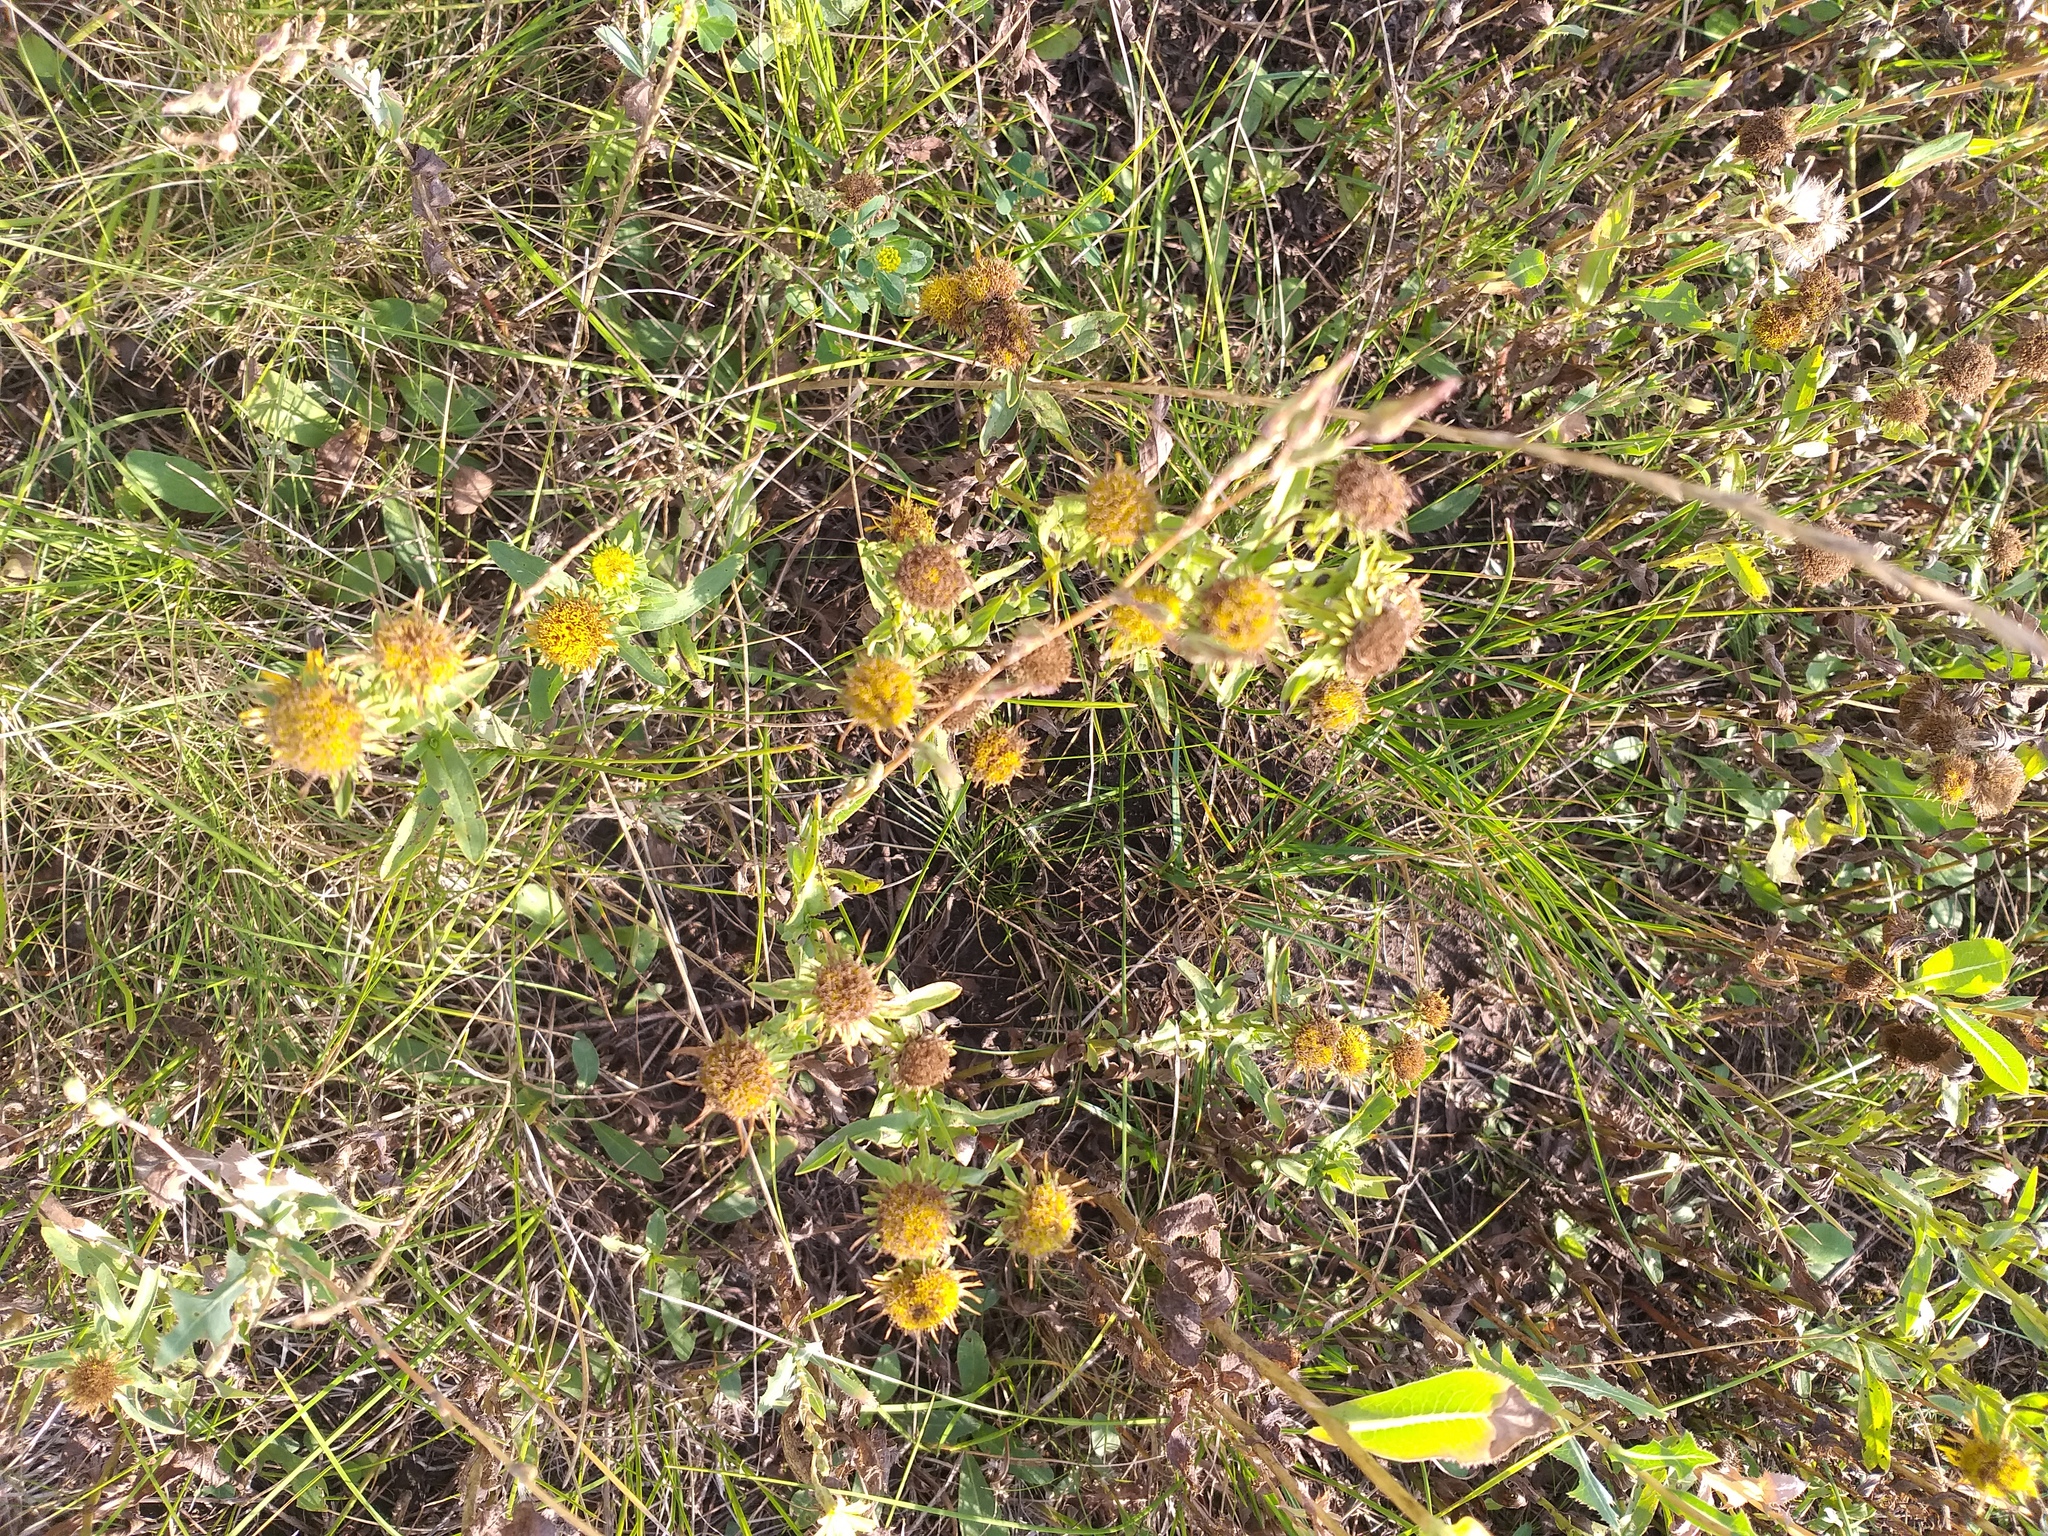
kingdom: Plantae
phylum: Tracheophyta
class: Magnoliopsida
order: Asterales
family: Asteraceae
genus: Pentanema
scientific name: Pentanema britannicum
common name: British elecampane
